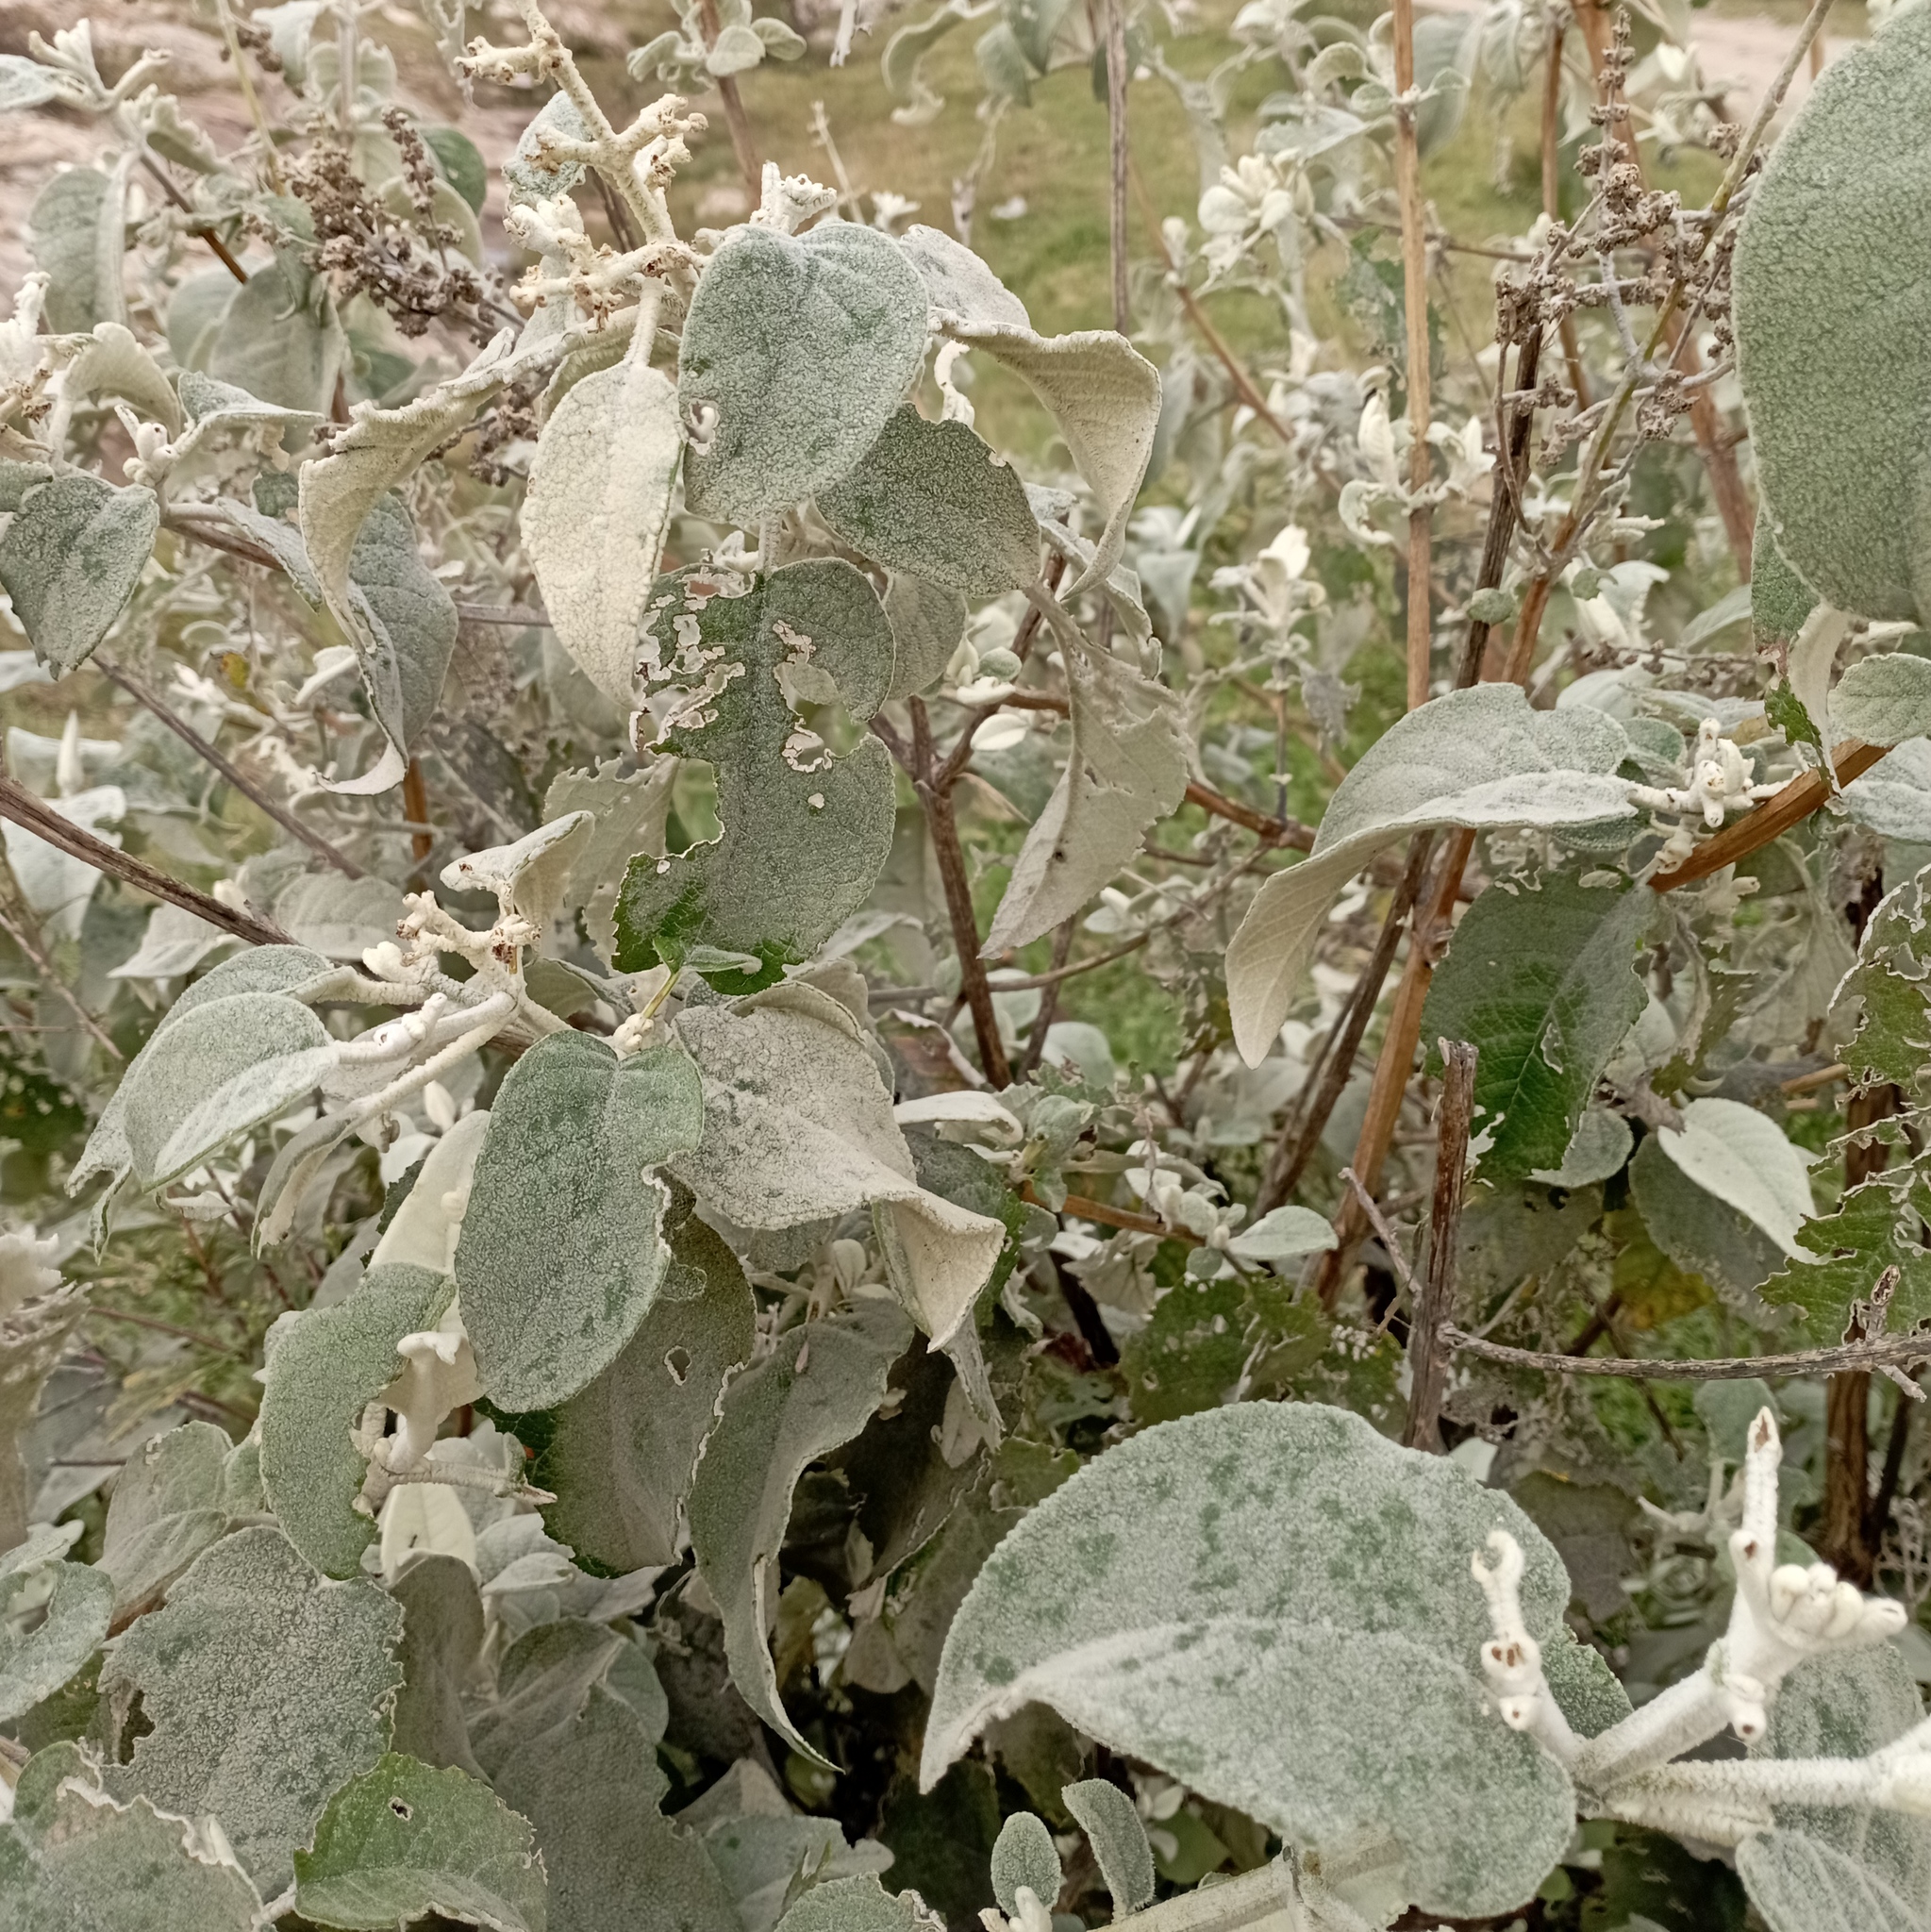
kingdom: Plantae
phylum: Tracheophyta
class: Magnoliopsida
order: Lamiales
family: Scrophulariaceae
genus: Buddleja
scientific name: Buddleja cordata
